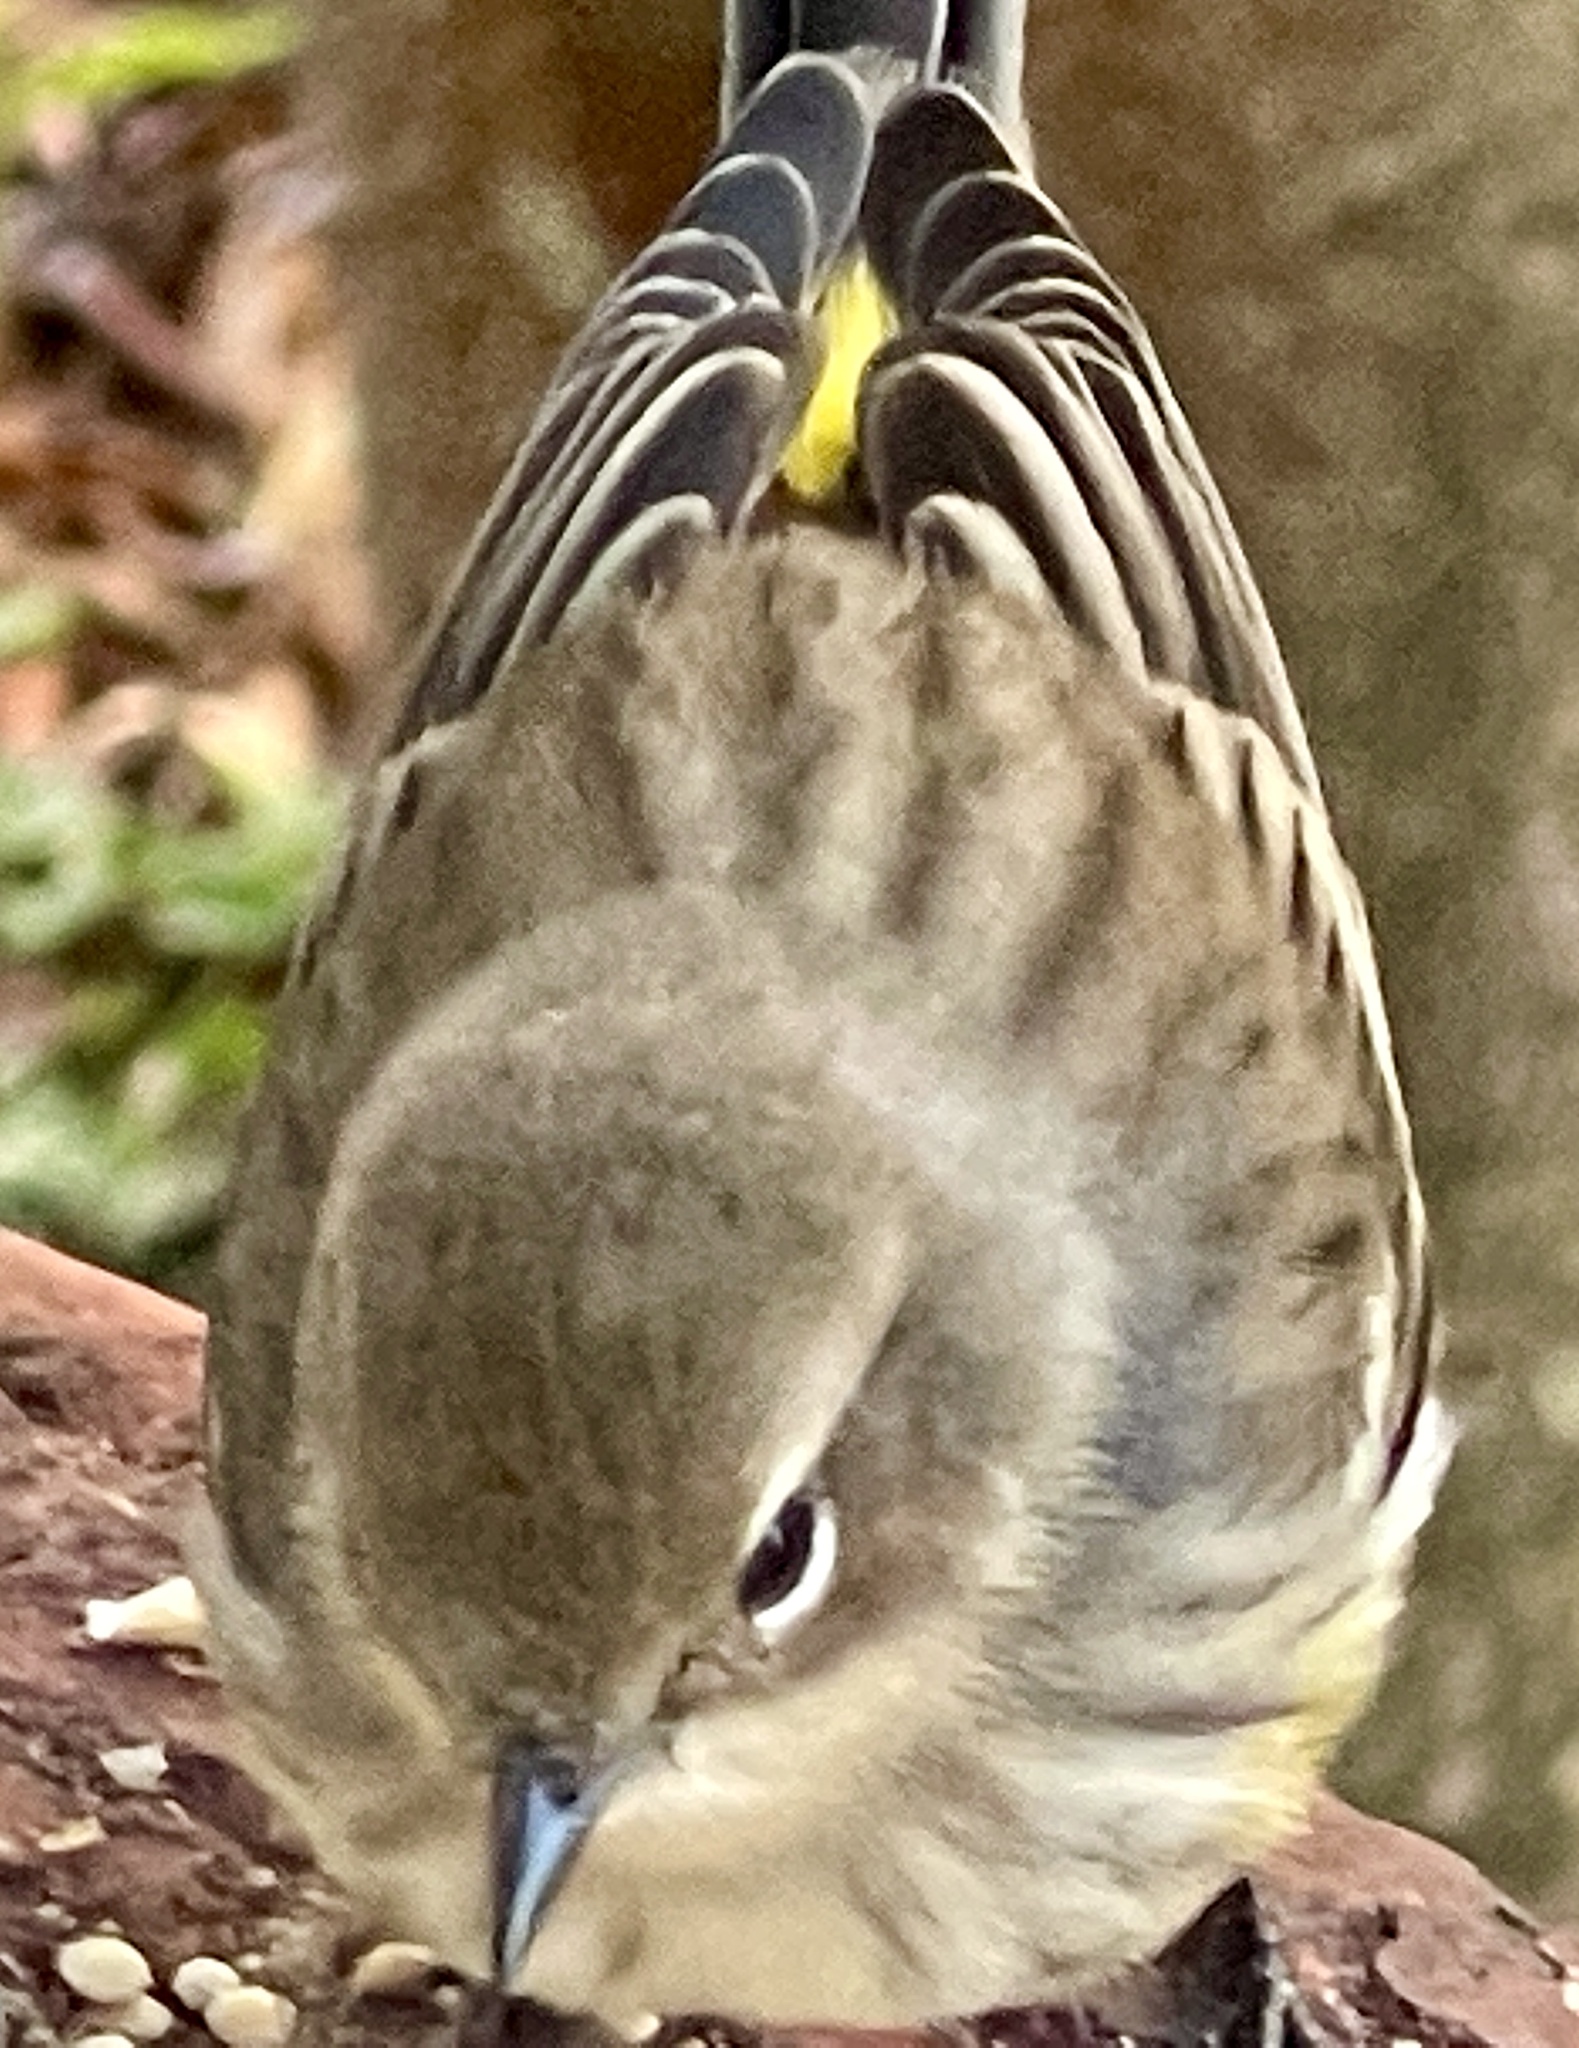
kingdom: Animalia
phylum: Chordata
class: Aves
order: Passeriformes
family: Parulidae
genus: Setophaga
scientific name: Setophaga coronata
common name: Myrtle warbler
